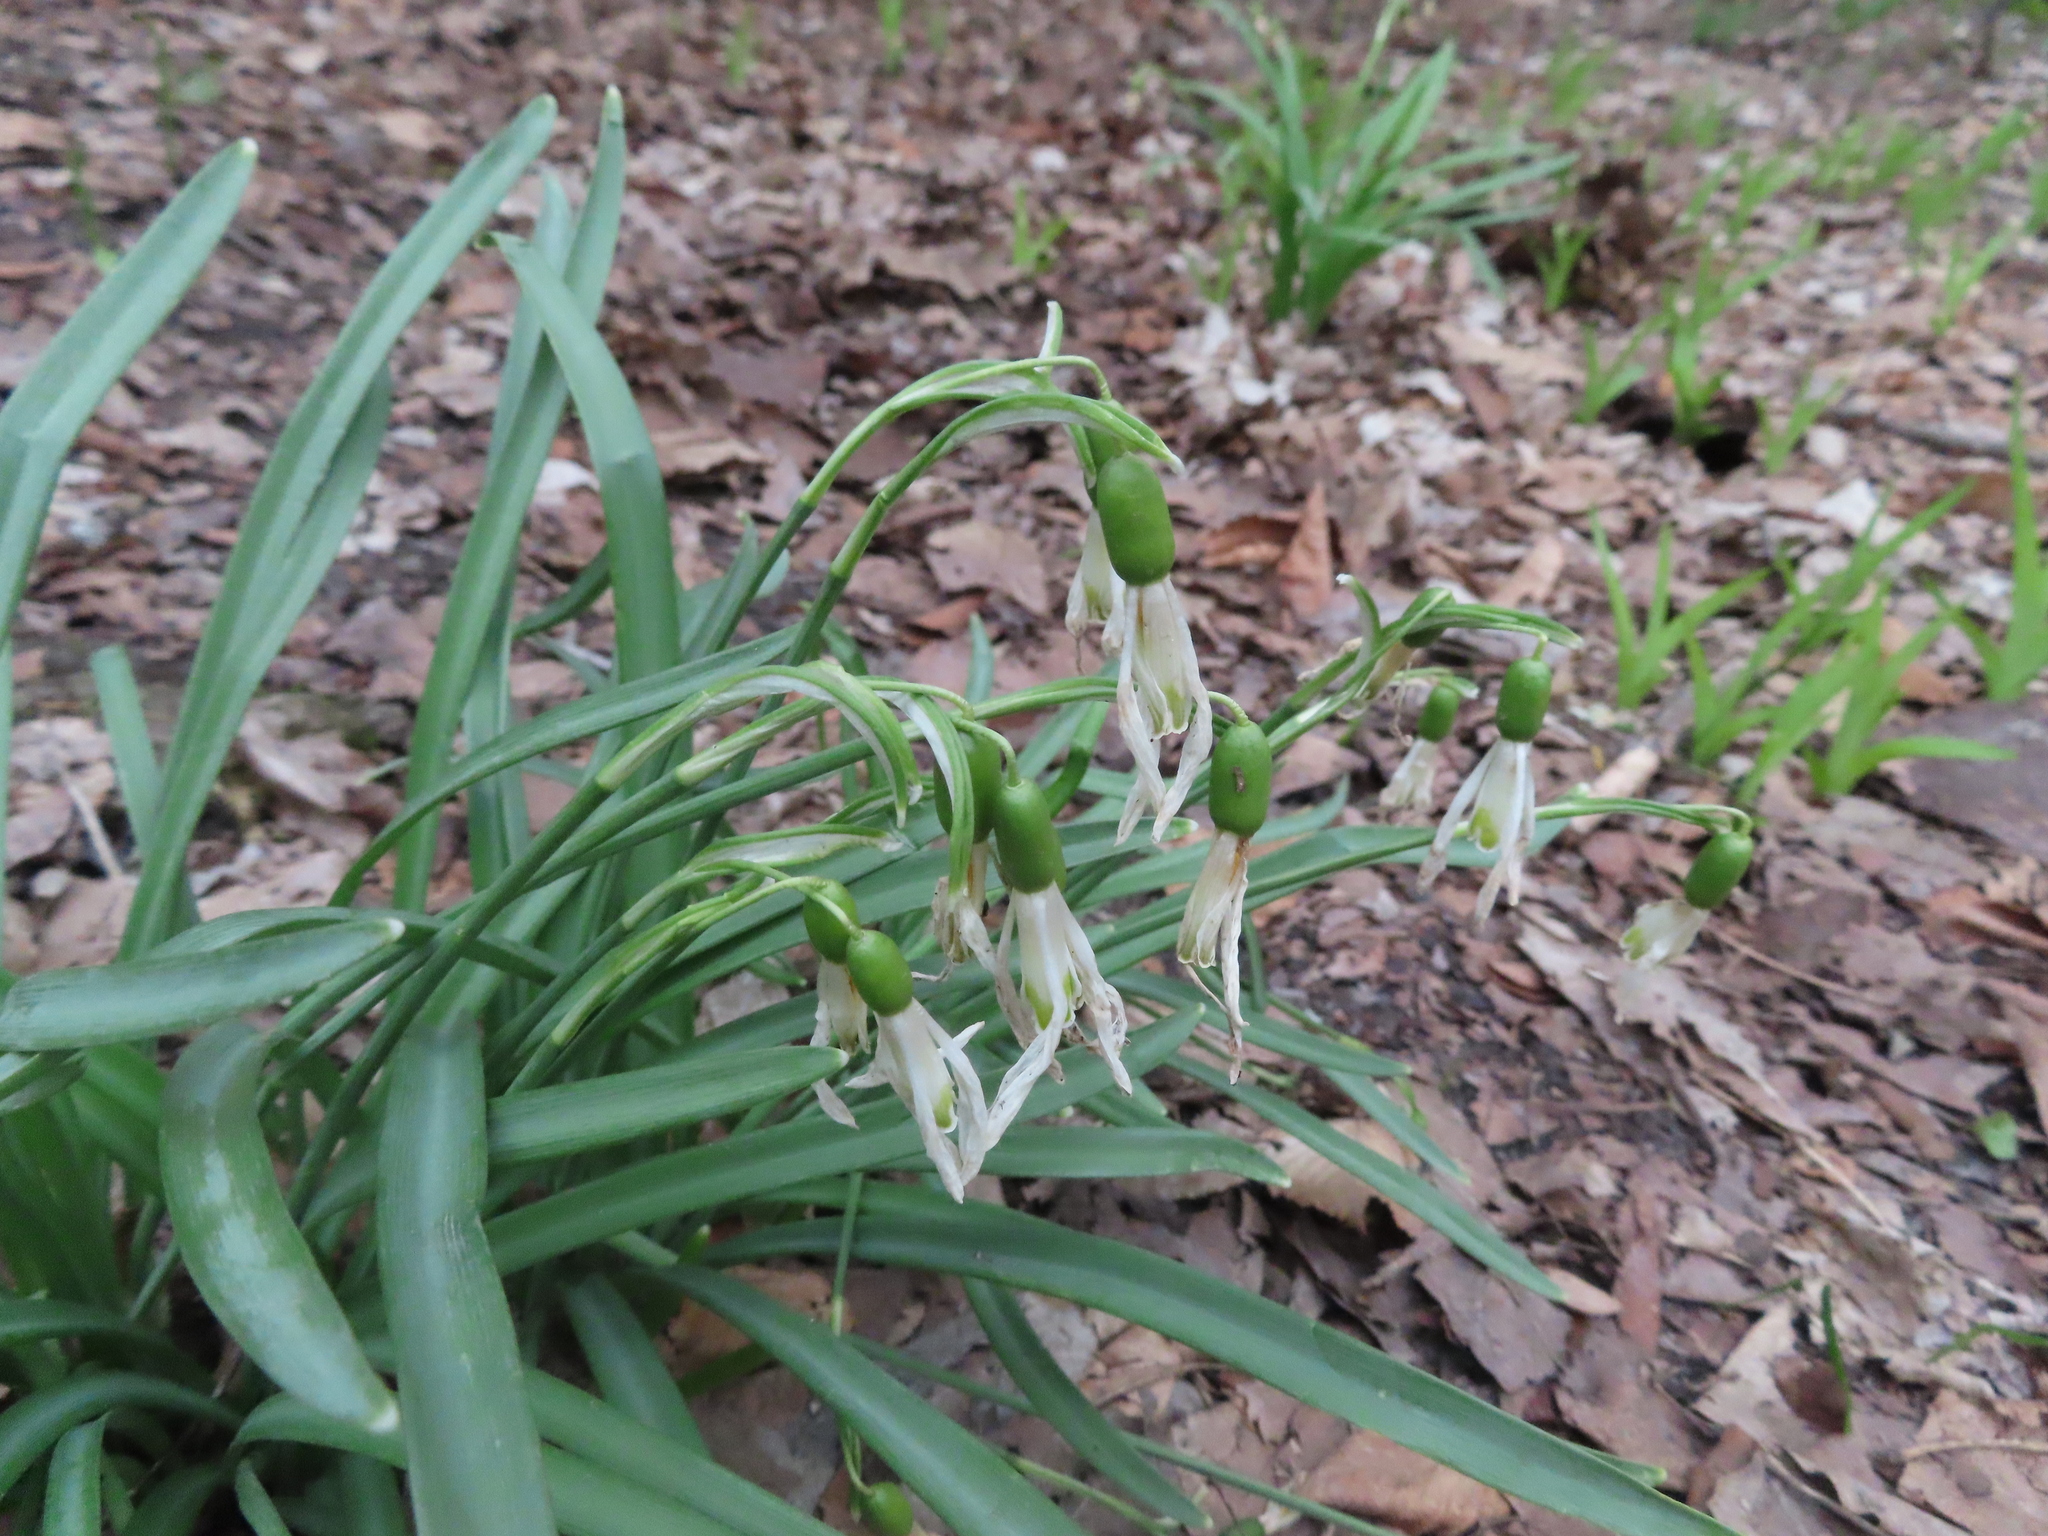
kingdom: Plantae
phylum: Tracheophyta
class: Liliopsida
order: Asparagales
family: Amaryllidaceae
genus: Galanthus
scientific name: Galanthus nivalis
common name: Snowdrop
